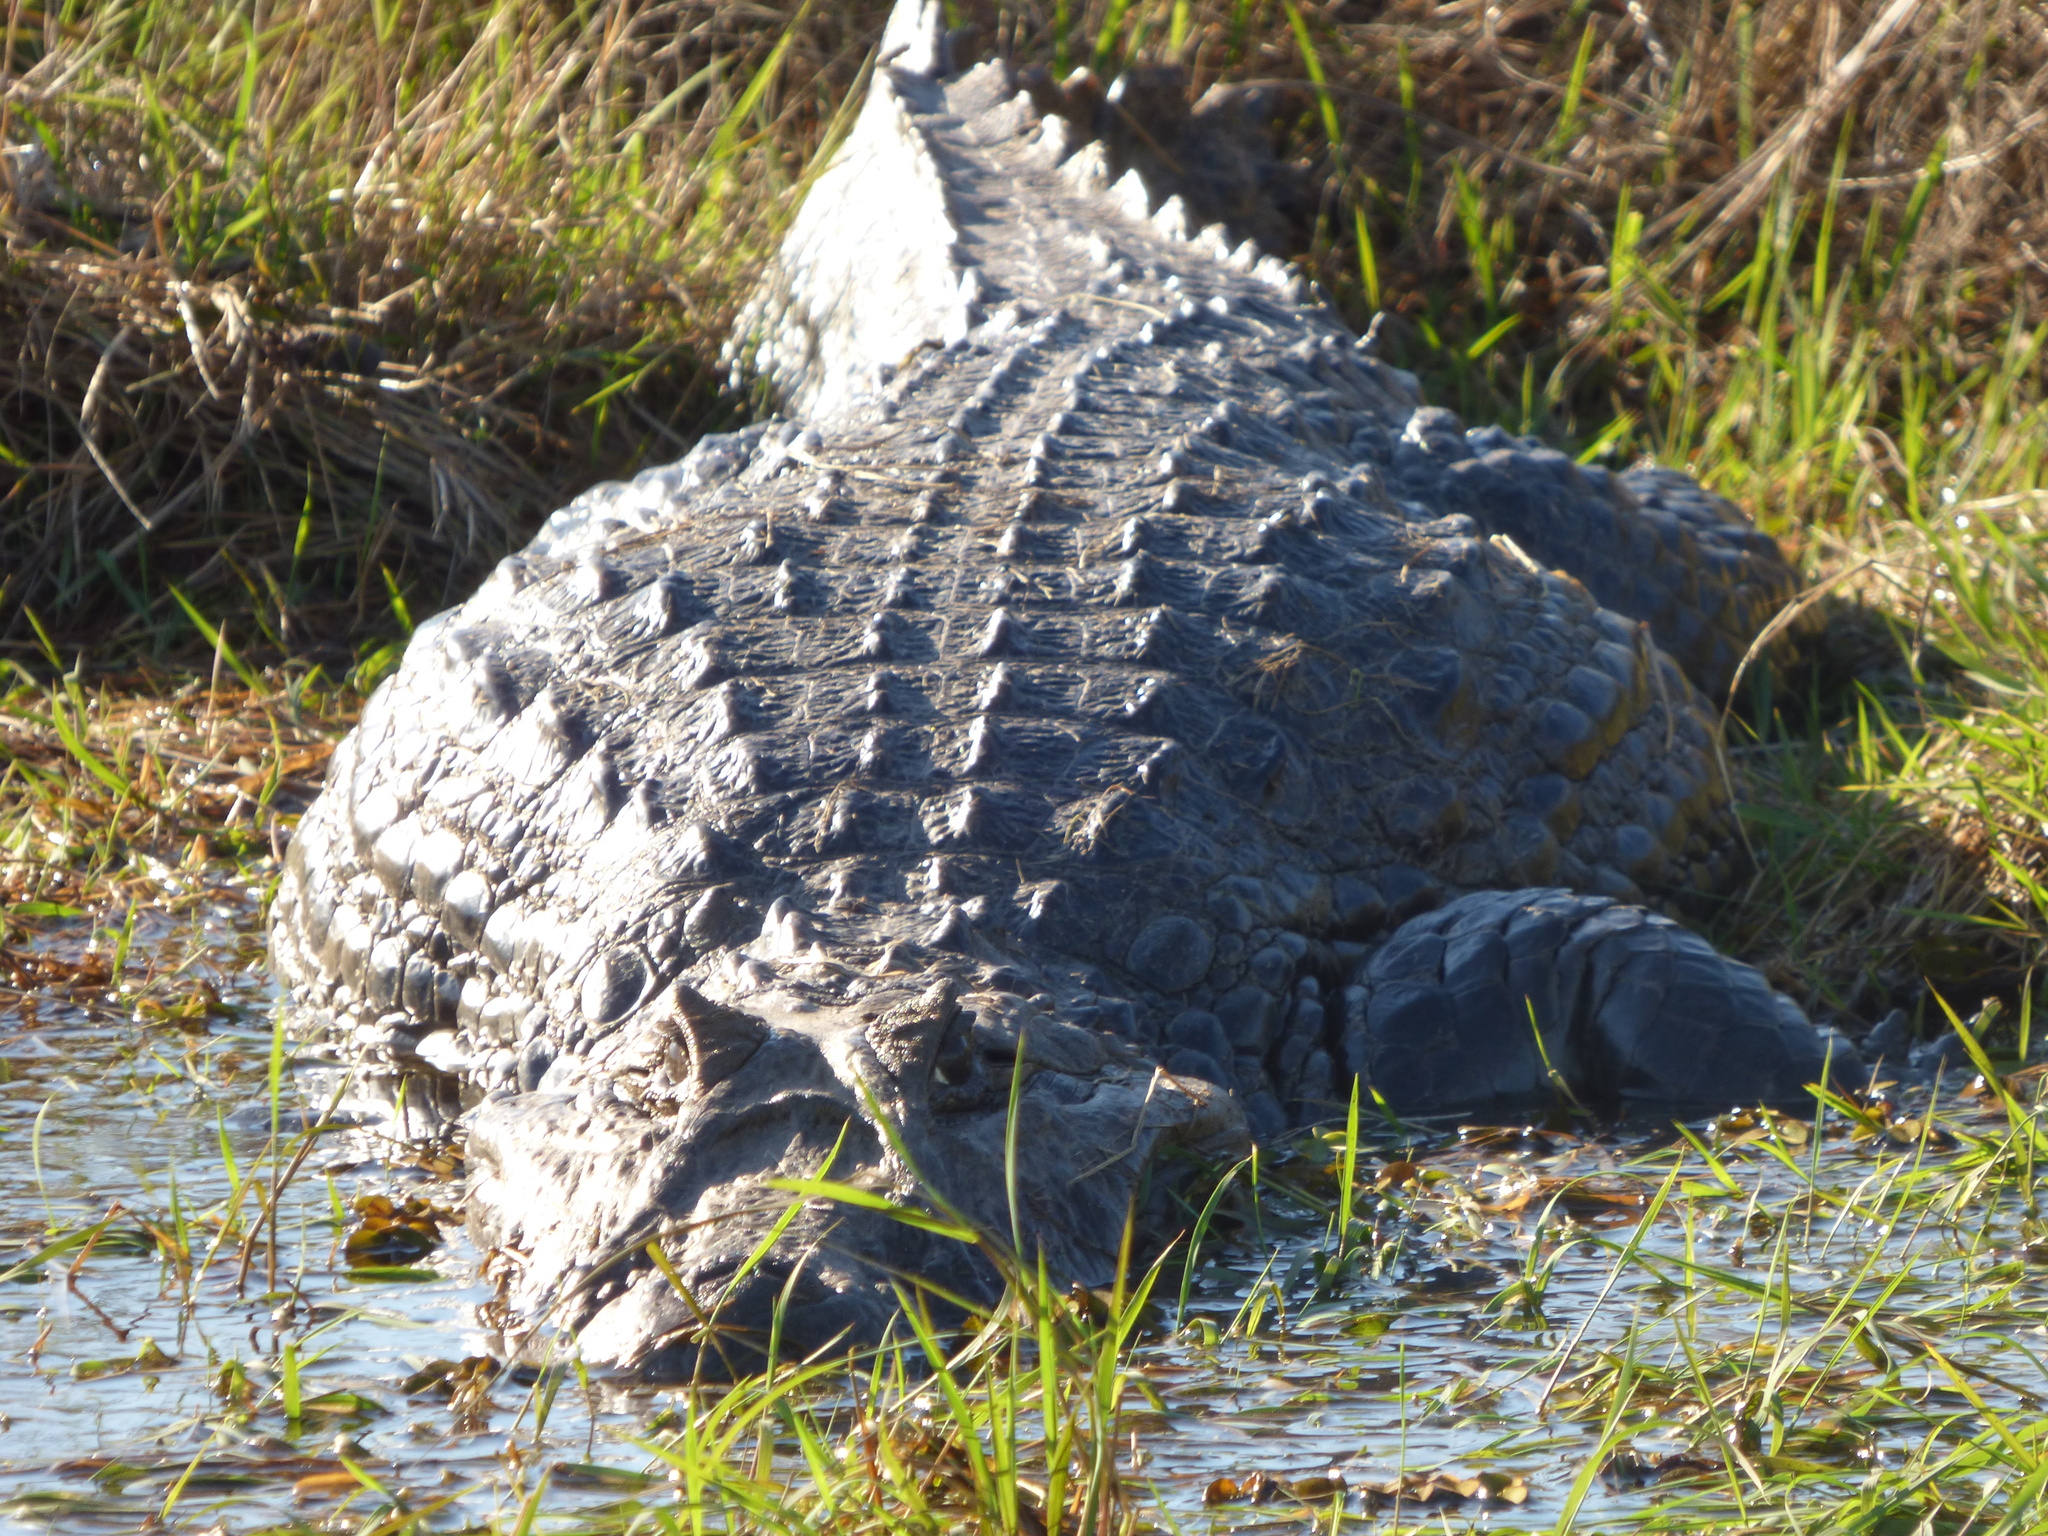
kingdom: Animalia
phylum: Chordata
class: Crocodylia
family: Alligatoridae
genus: Caiman
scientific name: Caiman latirostris
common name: Broad-snouted caiman
